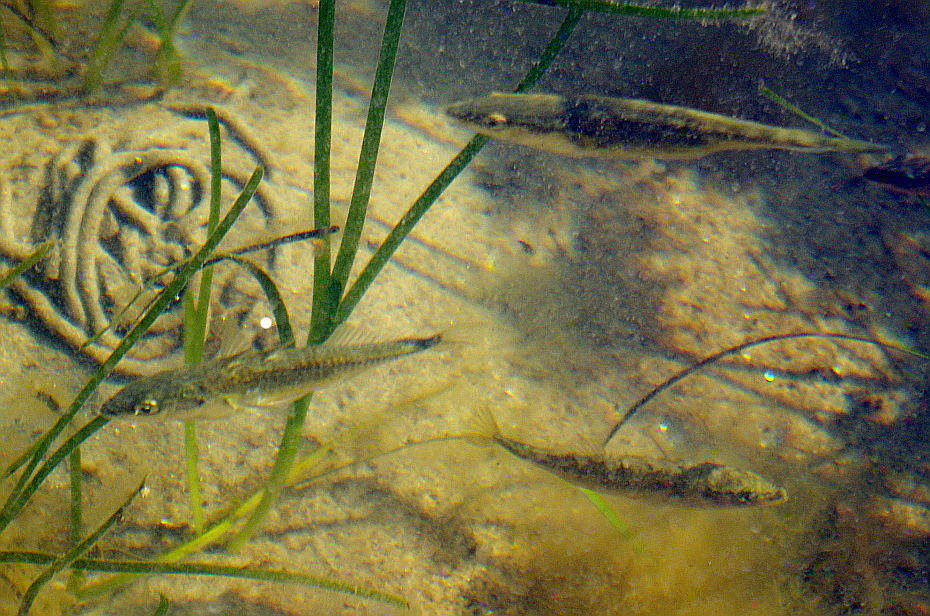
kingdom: Animalia
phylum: Chordata
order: Gasterosteiformes
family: Gasterosteidae
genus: Gasterosteus
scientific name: Gasterosteus aculeatus
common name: Three-spined stickleback
